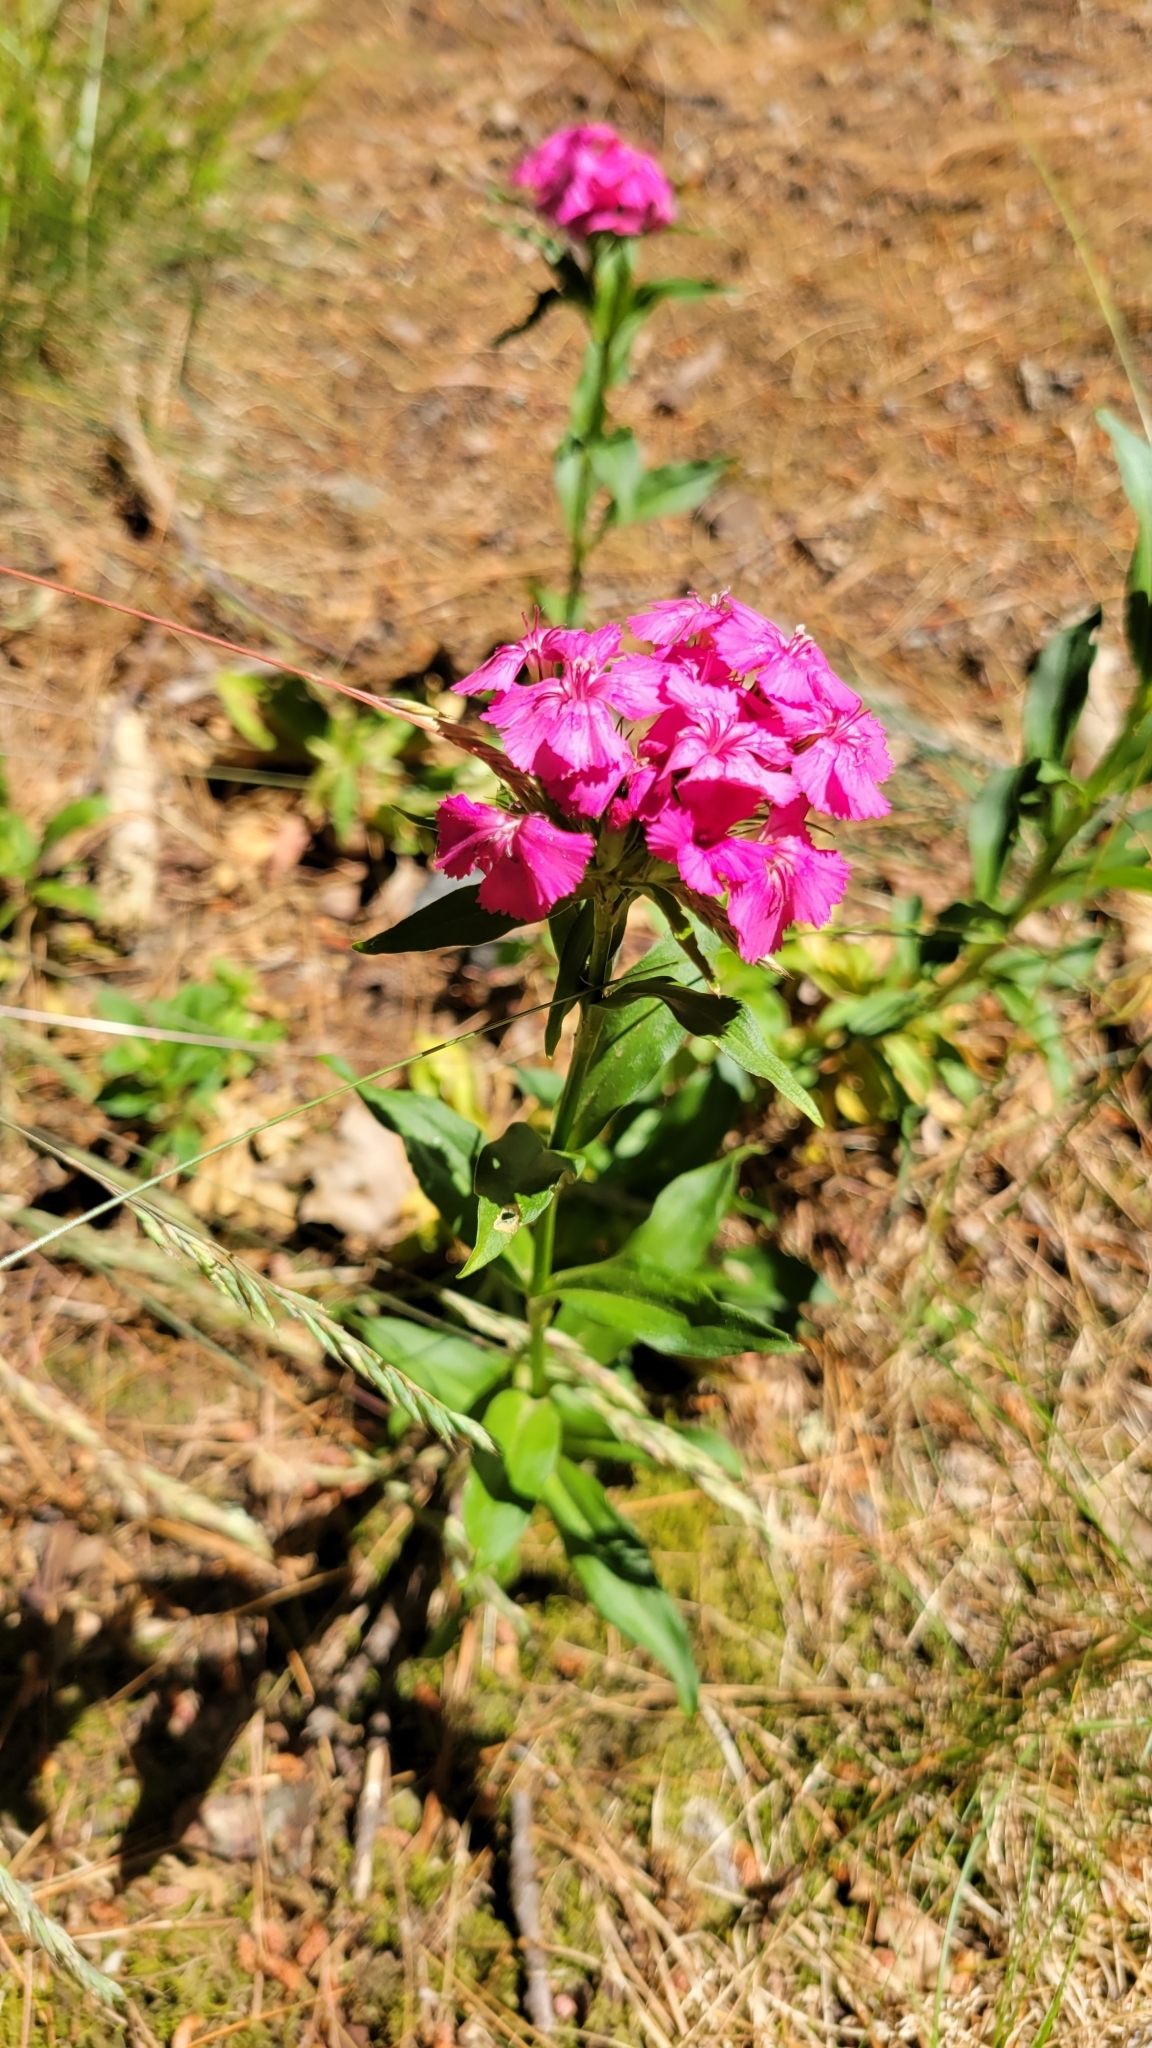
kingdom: Plantae
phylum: Tracheophyta
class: Magnoliopsida
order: Caryophyllales
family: Caryophyllaceae
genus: Dianthus
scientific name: Dianthus barbatus
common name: Sweet-william
